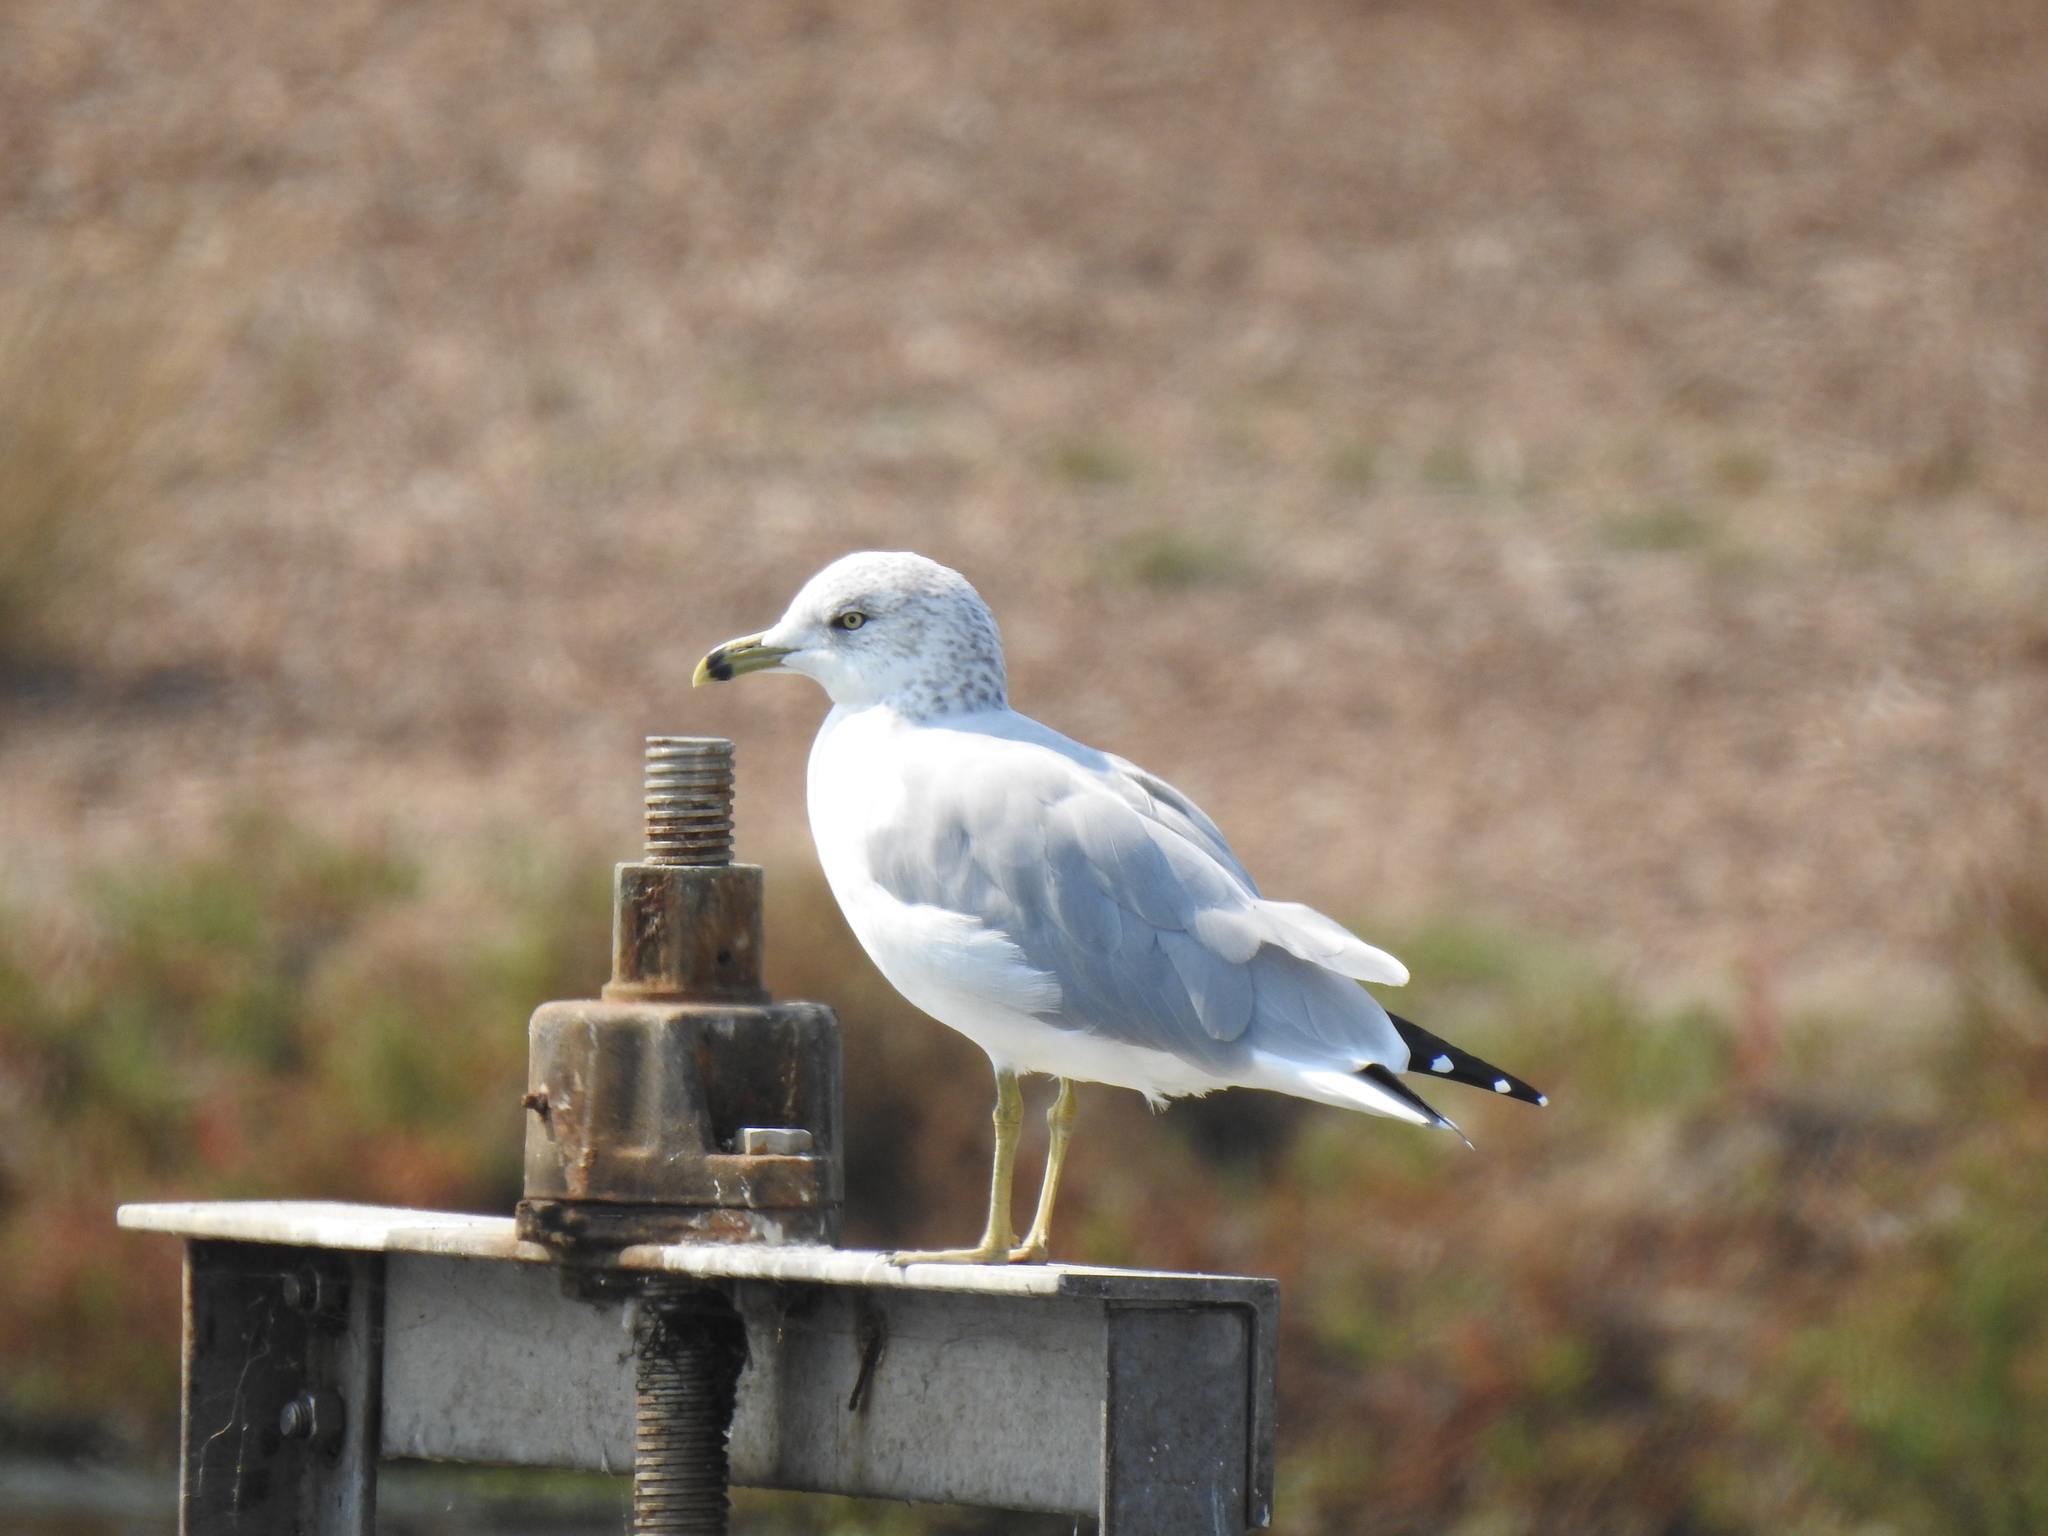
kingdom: Animalia
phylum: Chordata
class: Aves
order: Charadriiformes
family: Laridae
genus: Larus
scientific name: Larus delawarensis
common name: Ring-billed gull
